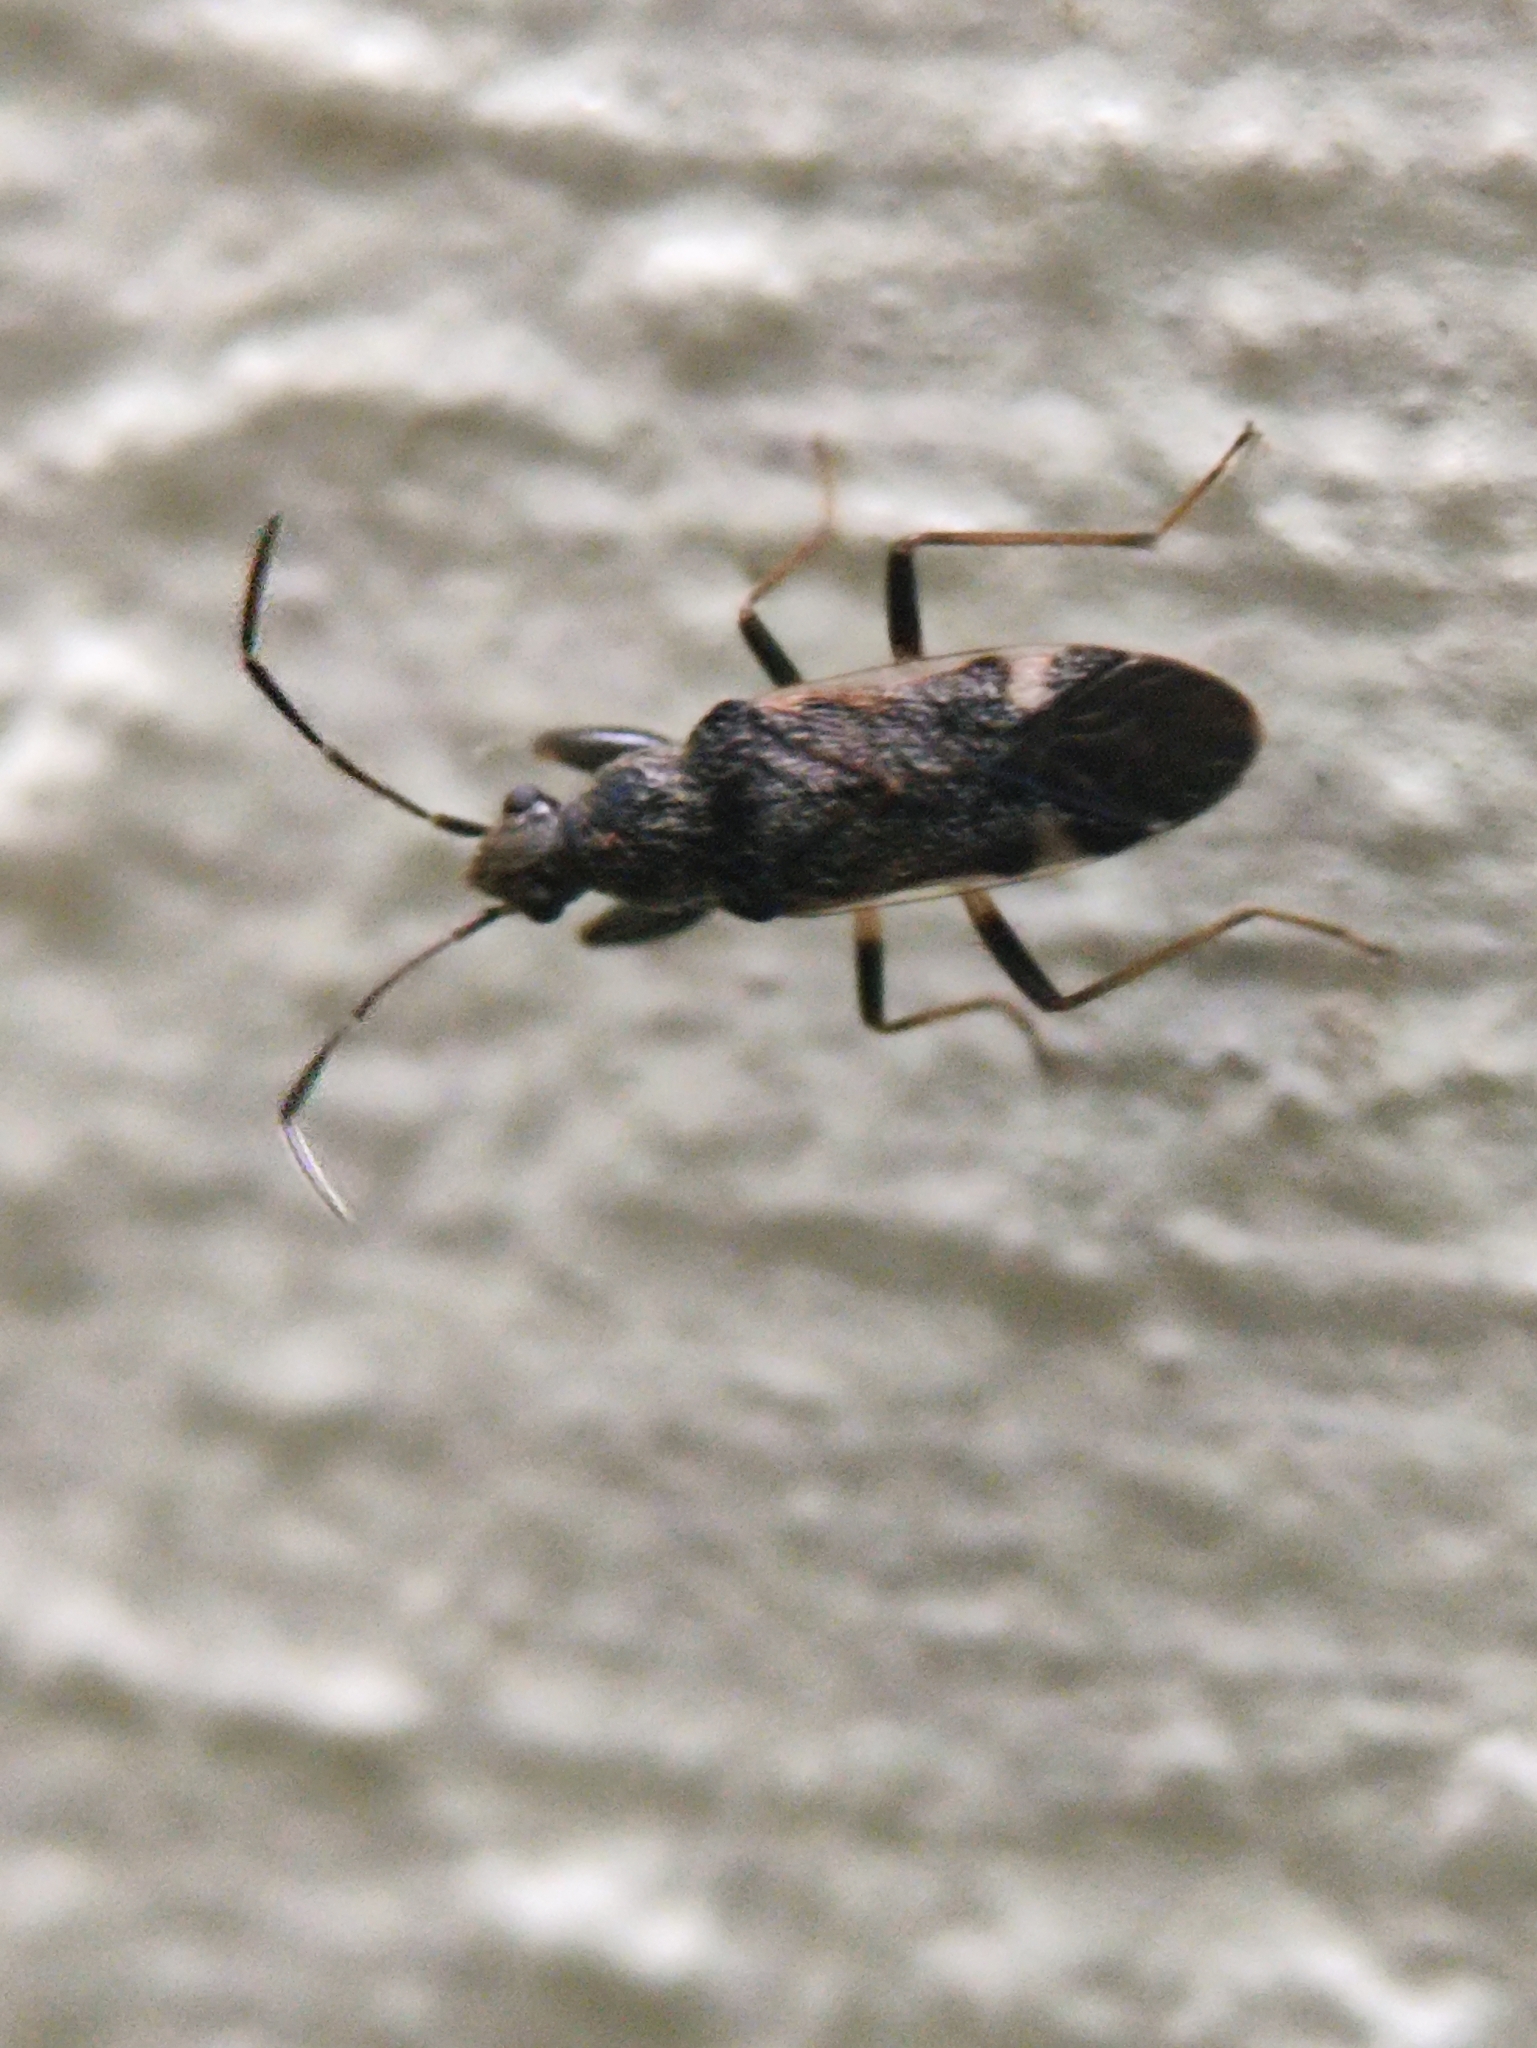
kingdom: Animalia
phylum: Arthropoda
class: Insecta
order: Hemiptera
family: Rhyparochromidae
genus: Horridipamera
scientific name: Horridipamera nietneri
